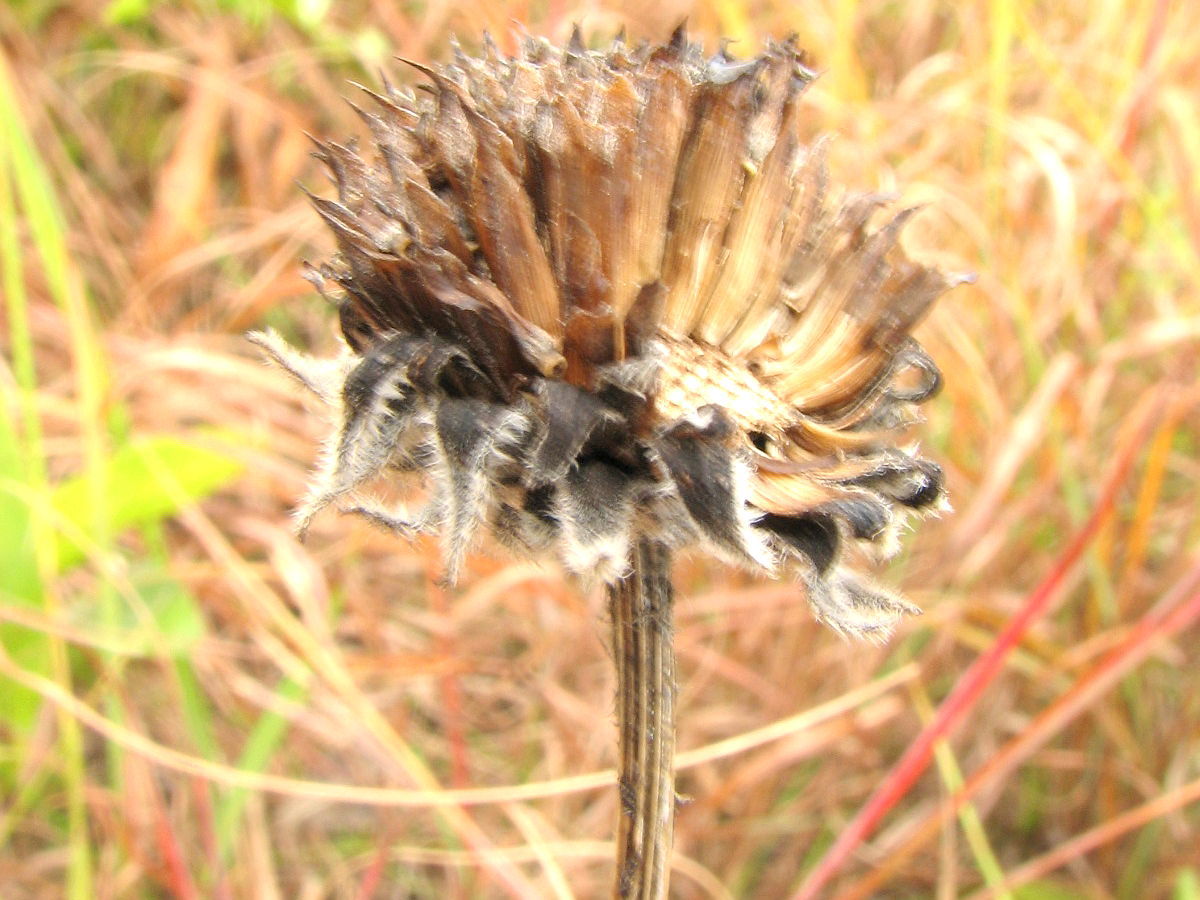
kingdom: Plantae
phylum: Tracheophyta
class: Magnoliopsida
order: Asterales
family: Asteraceae
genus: Helianthus
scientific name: Helianthus mollis
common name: Ashy sunflower
